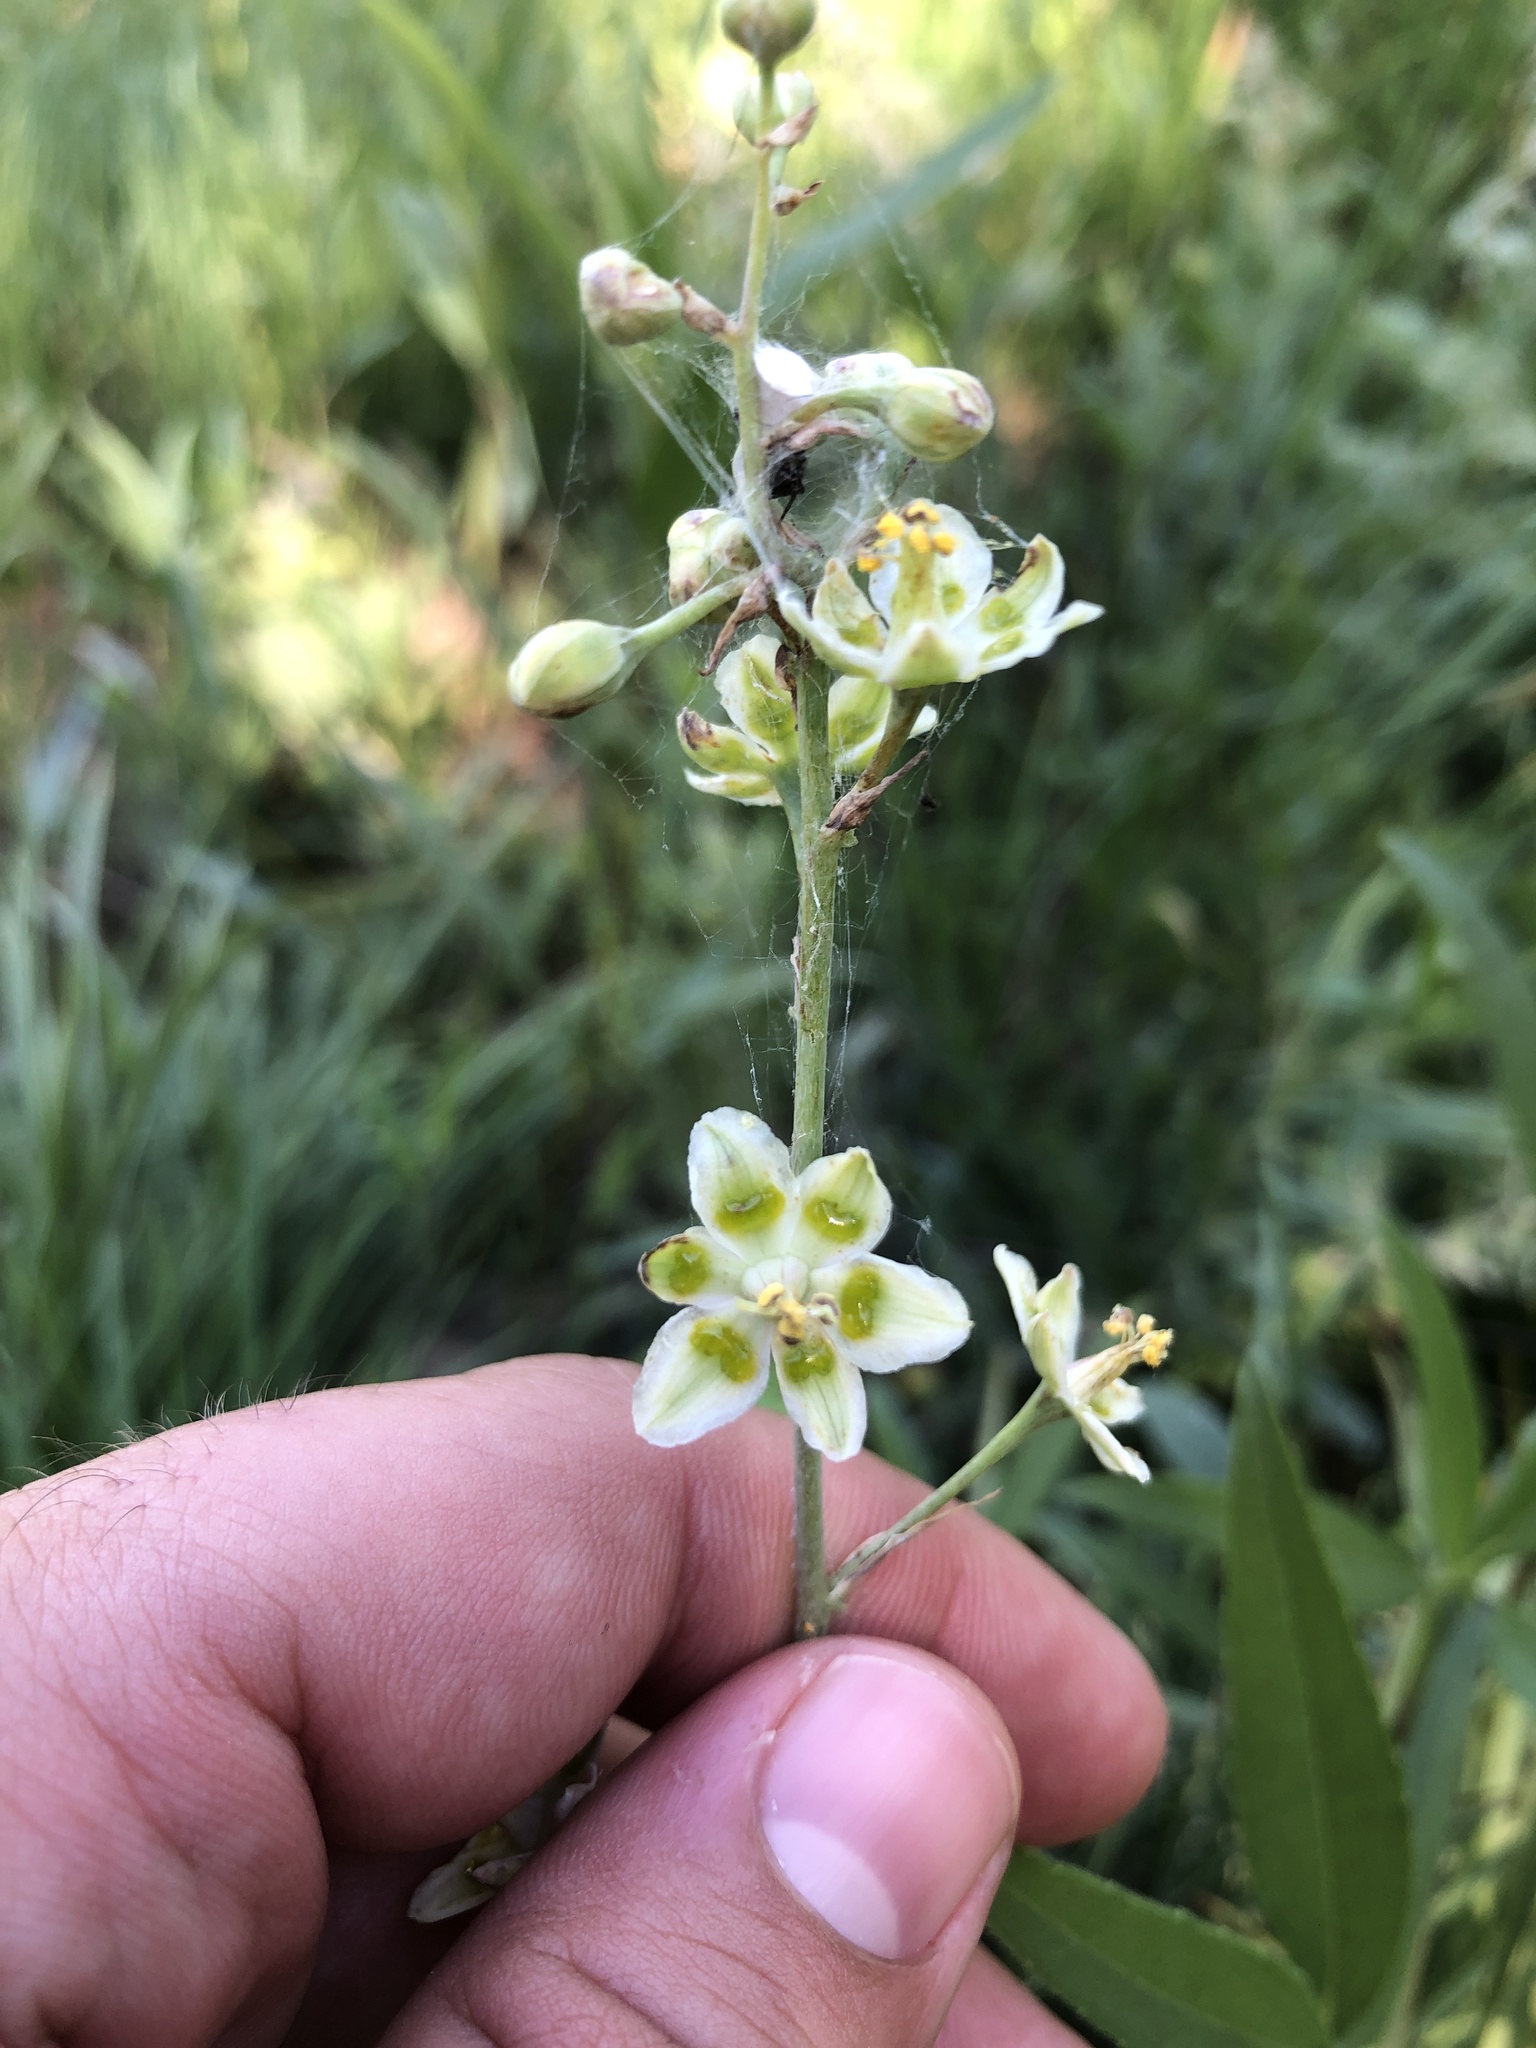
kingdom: Plantae
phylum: Tracheophyta
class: Liliopsida
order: Liliales
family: Melanthiaceae
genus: Anticlea
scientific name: Anticlea elegans
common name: Mountain death camas
